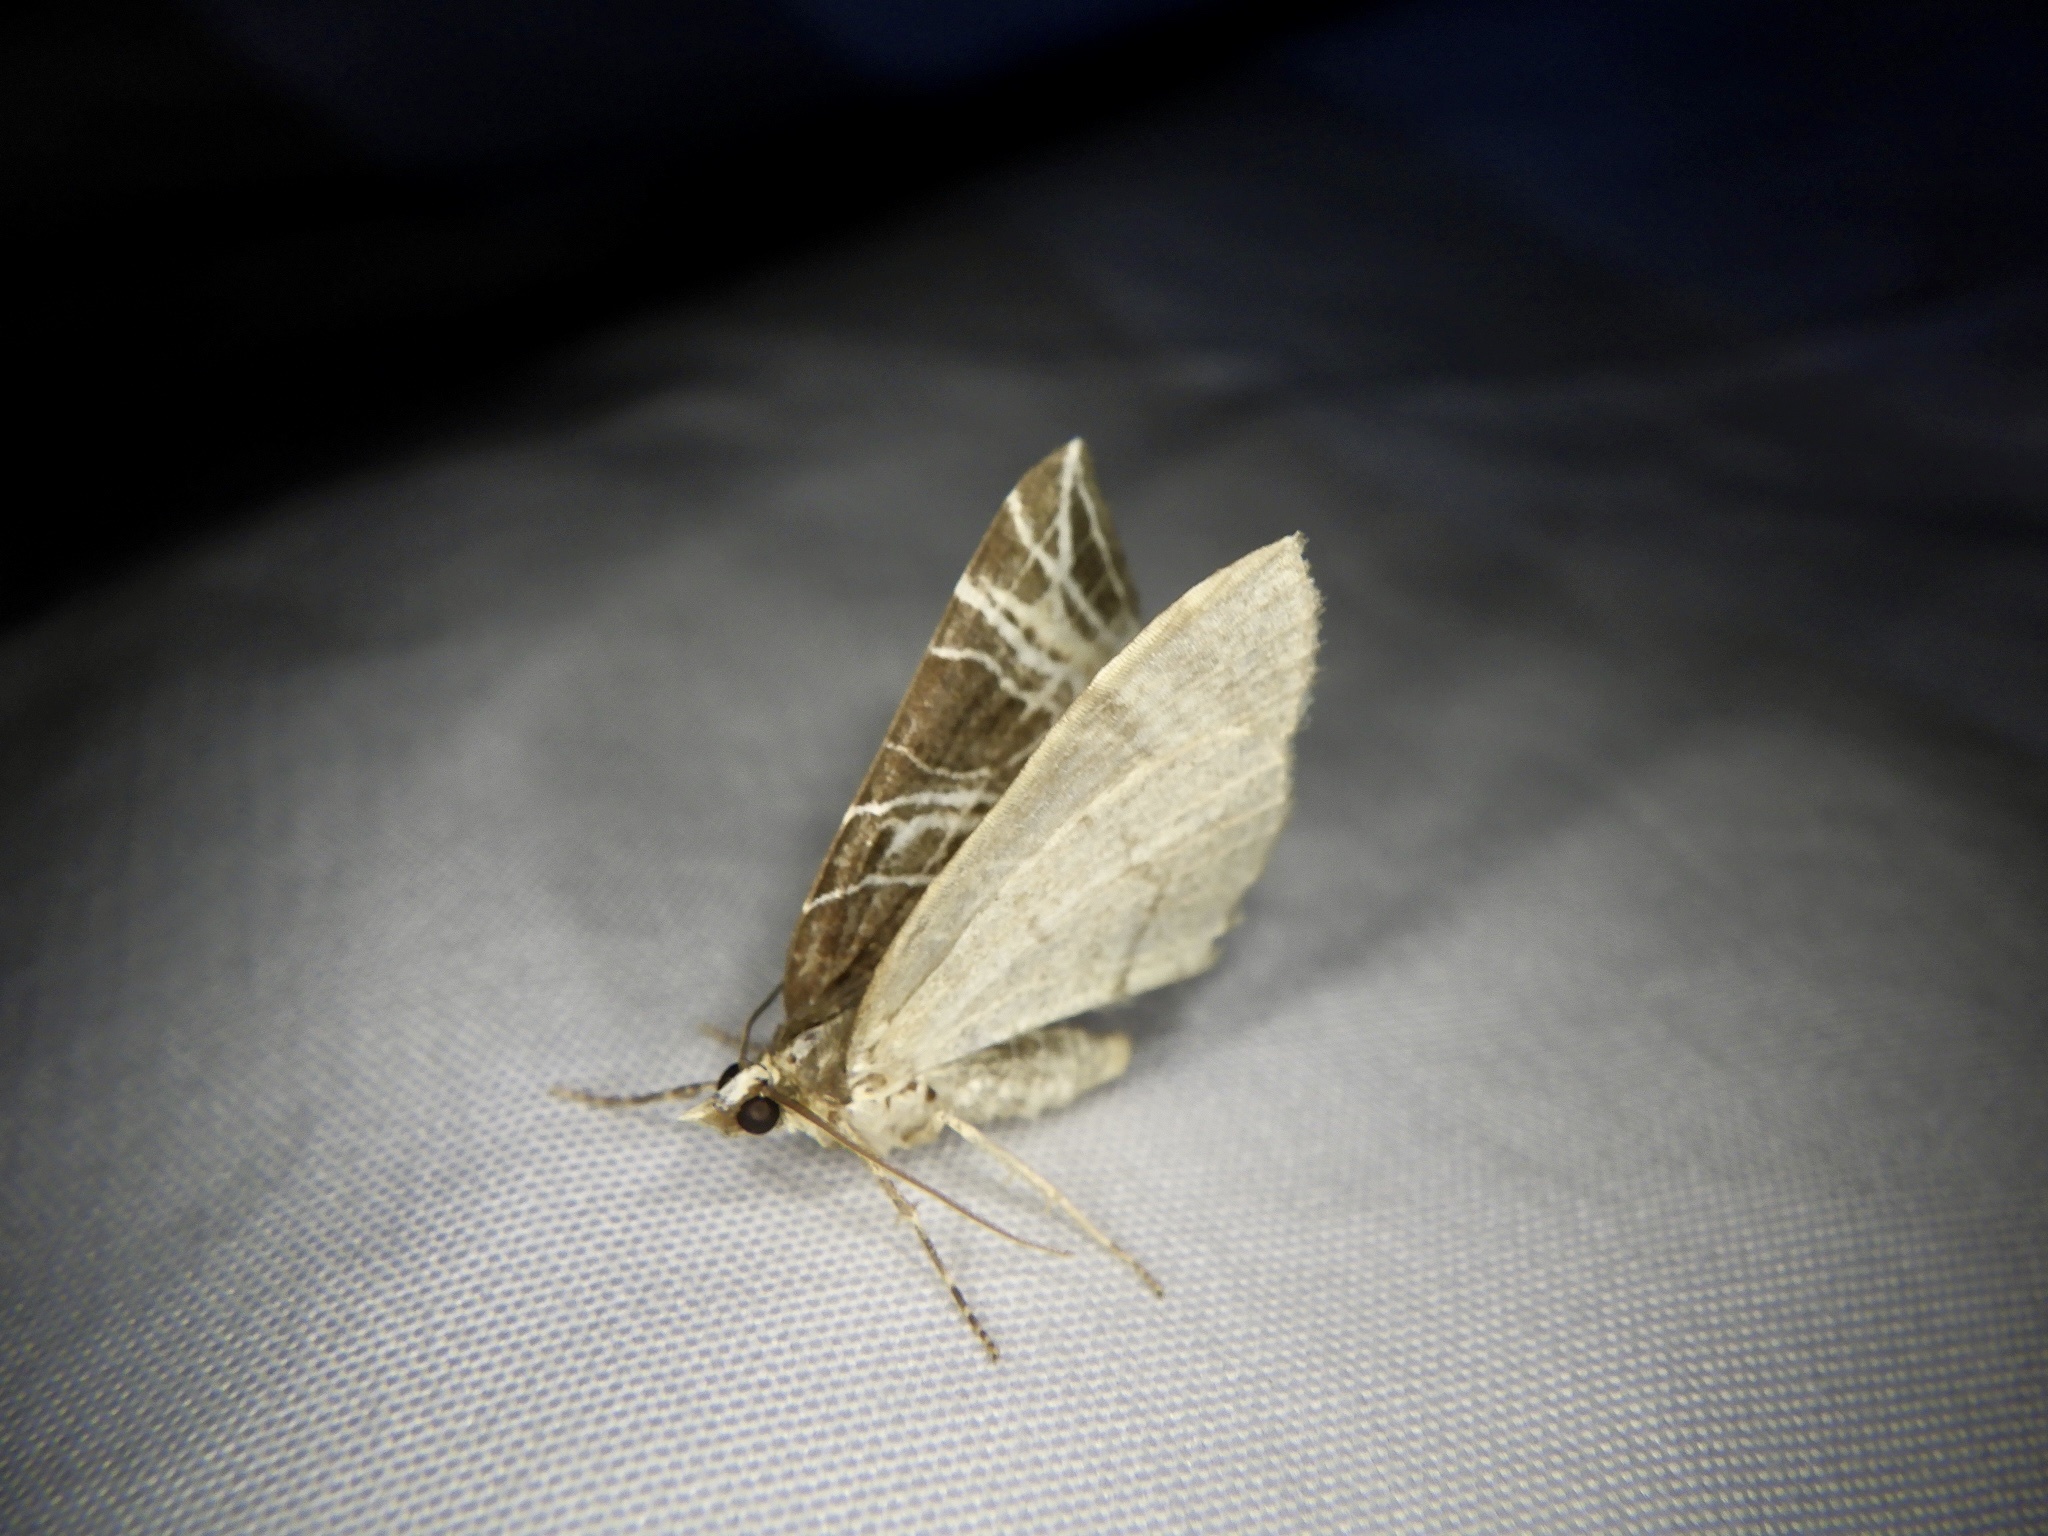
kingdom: Animalia
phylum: Arthropoda
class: Insecta
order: Lepidoptera
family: Geometridae
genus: Evecliptopera
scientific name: Evecliptopera illitata
